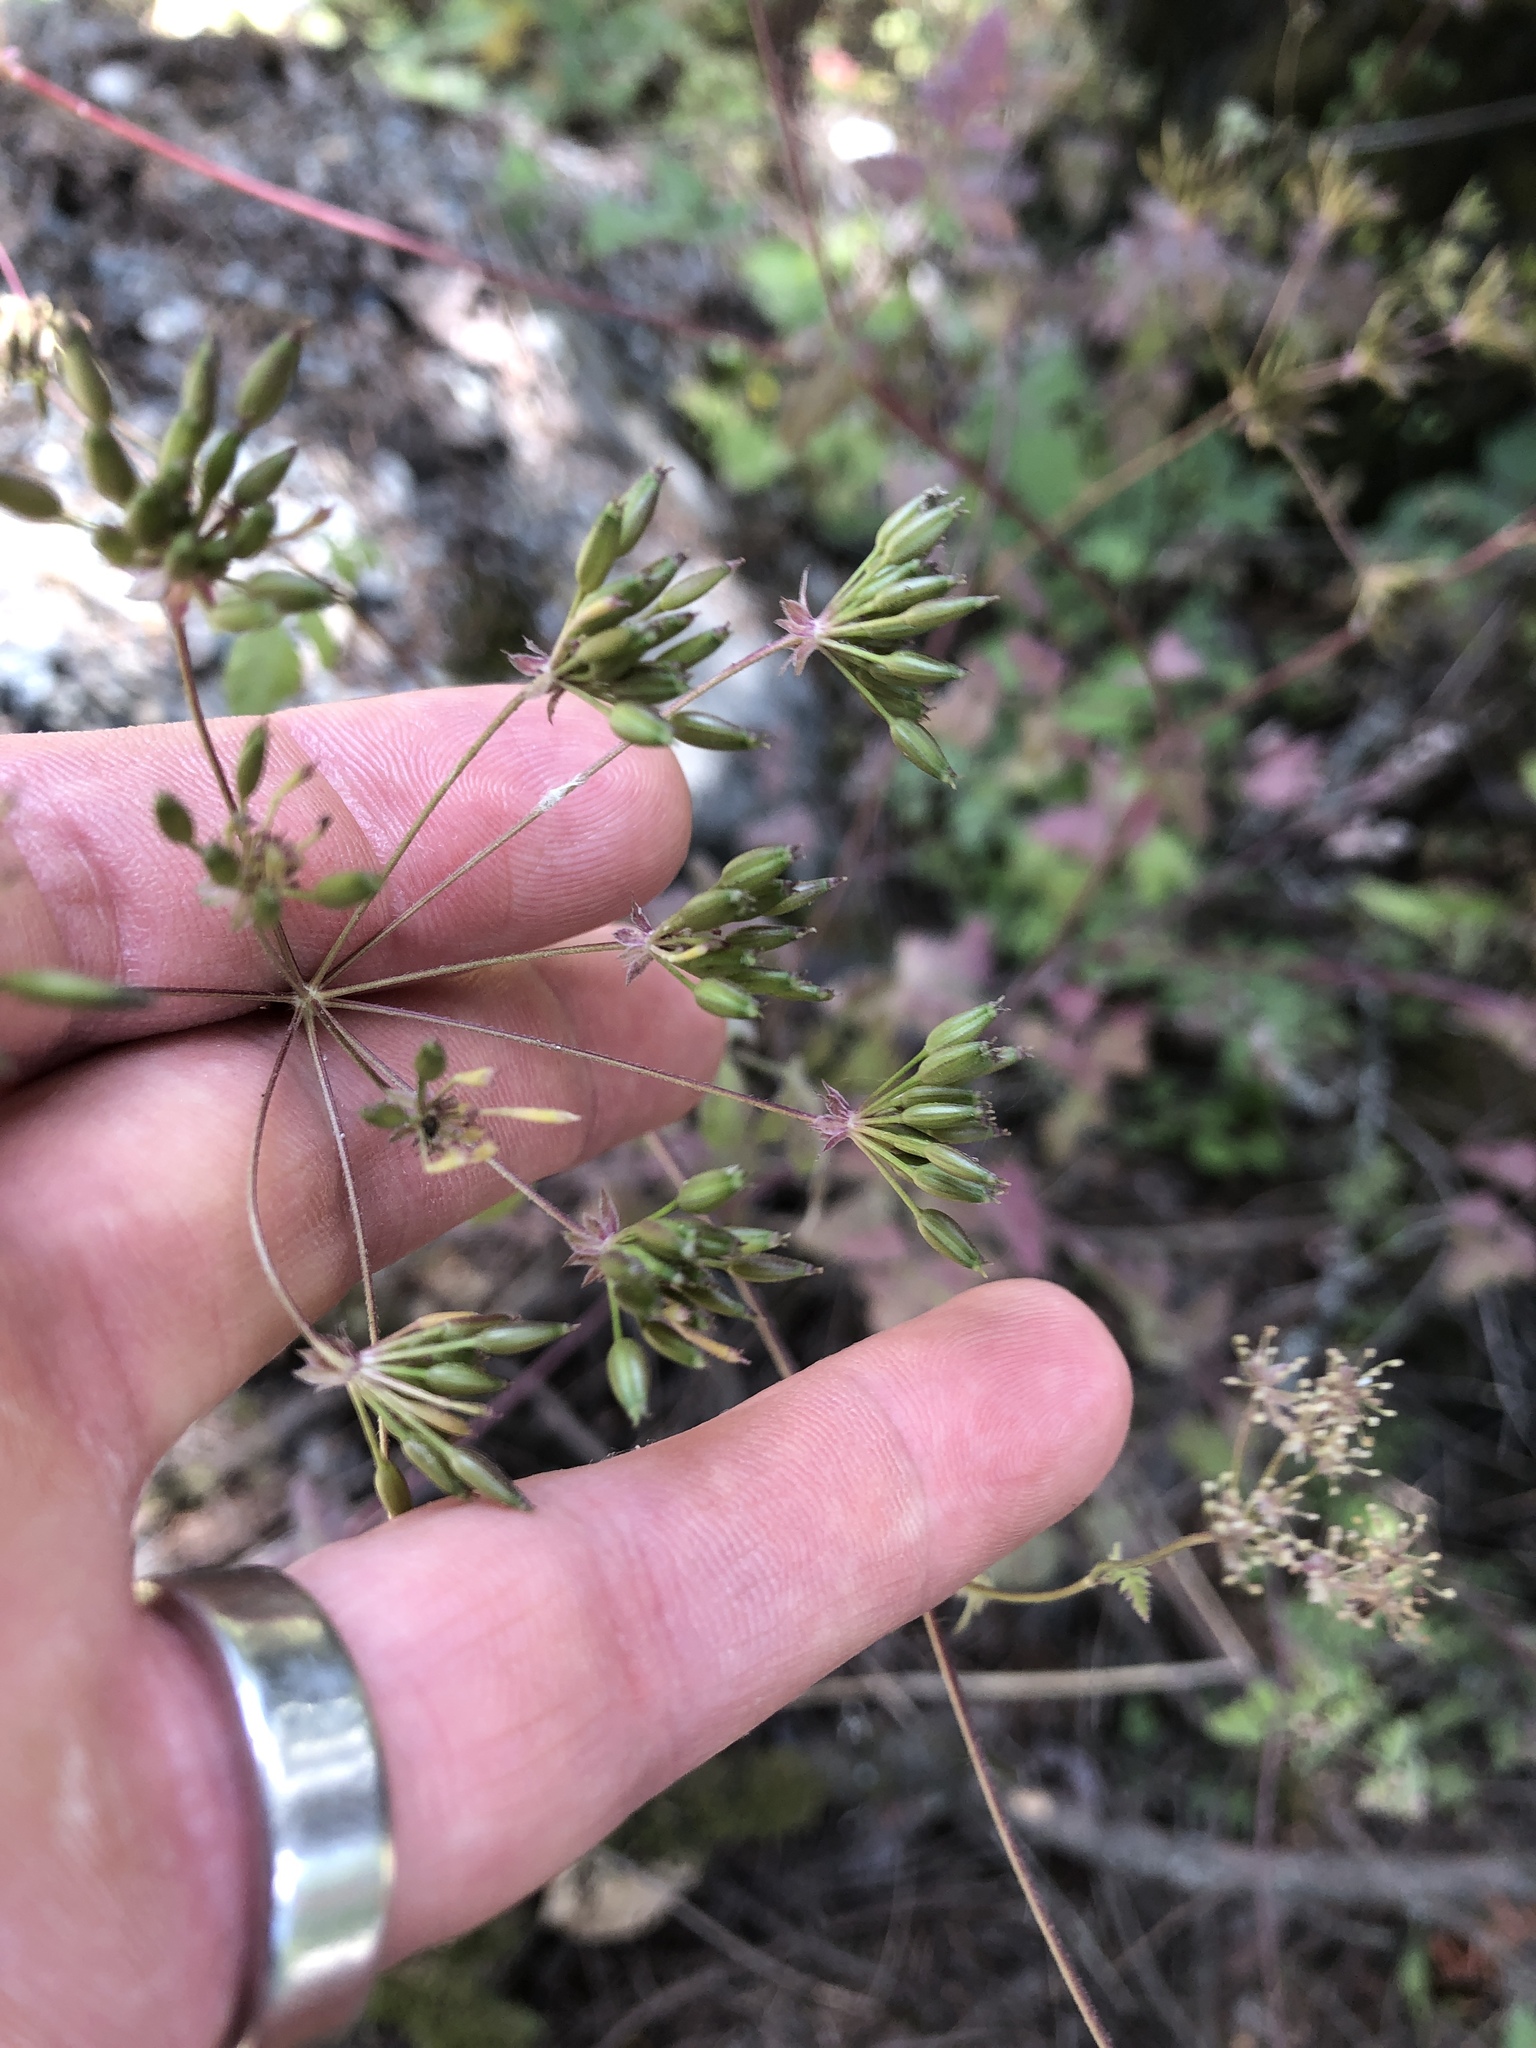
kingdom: Plantae
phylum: Tracheophyta
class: Magnoliopsida
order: Apiales
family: Apiaceae
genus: Chaerophyllum
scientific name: Chaerophyllum temulum
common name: Rough chervil
